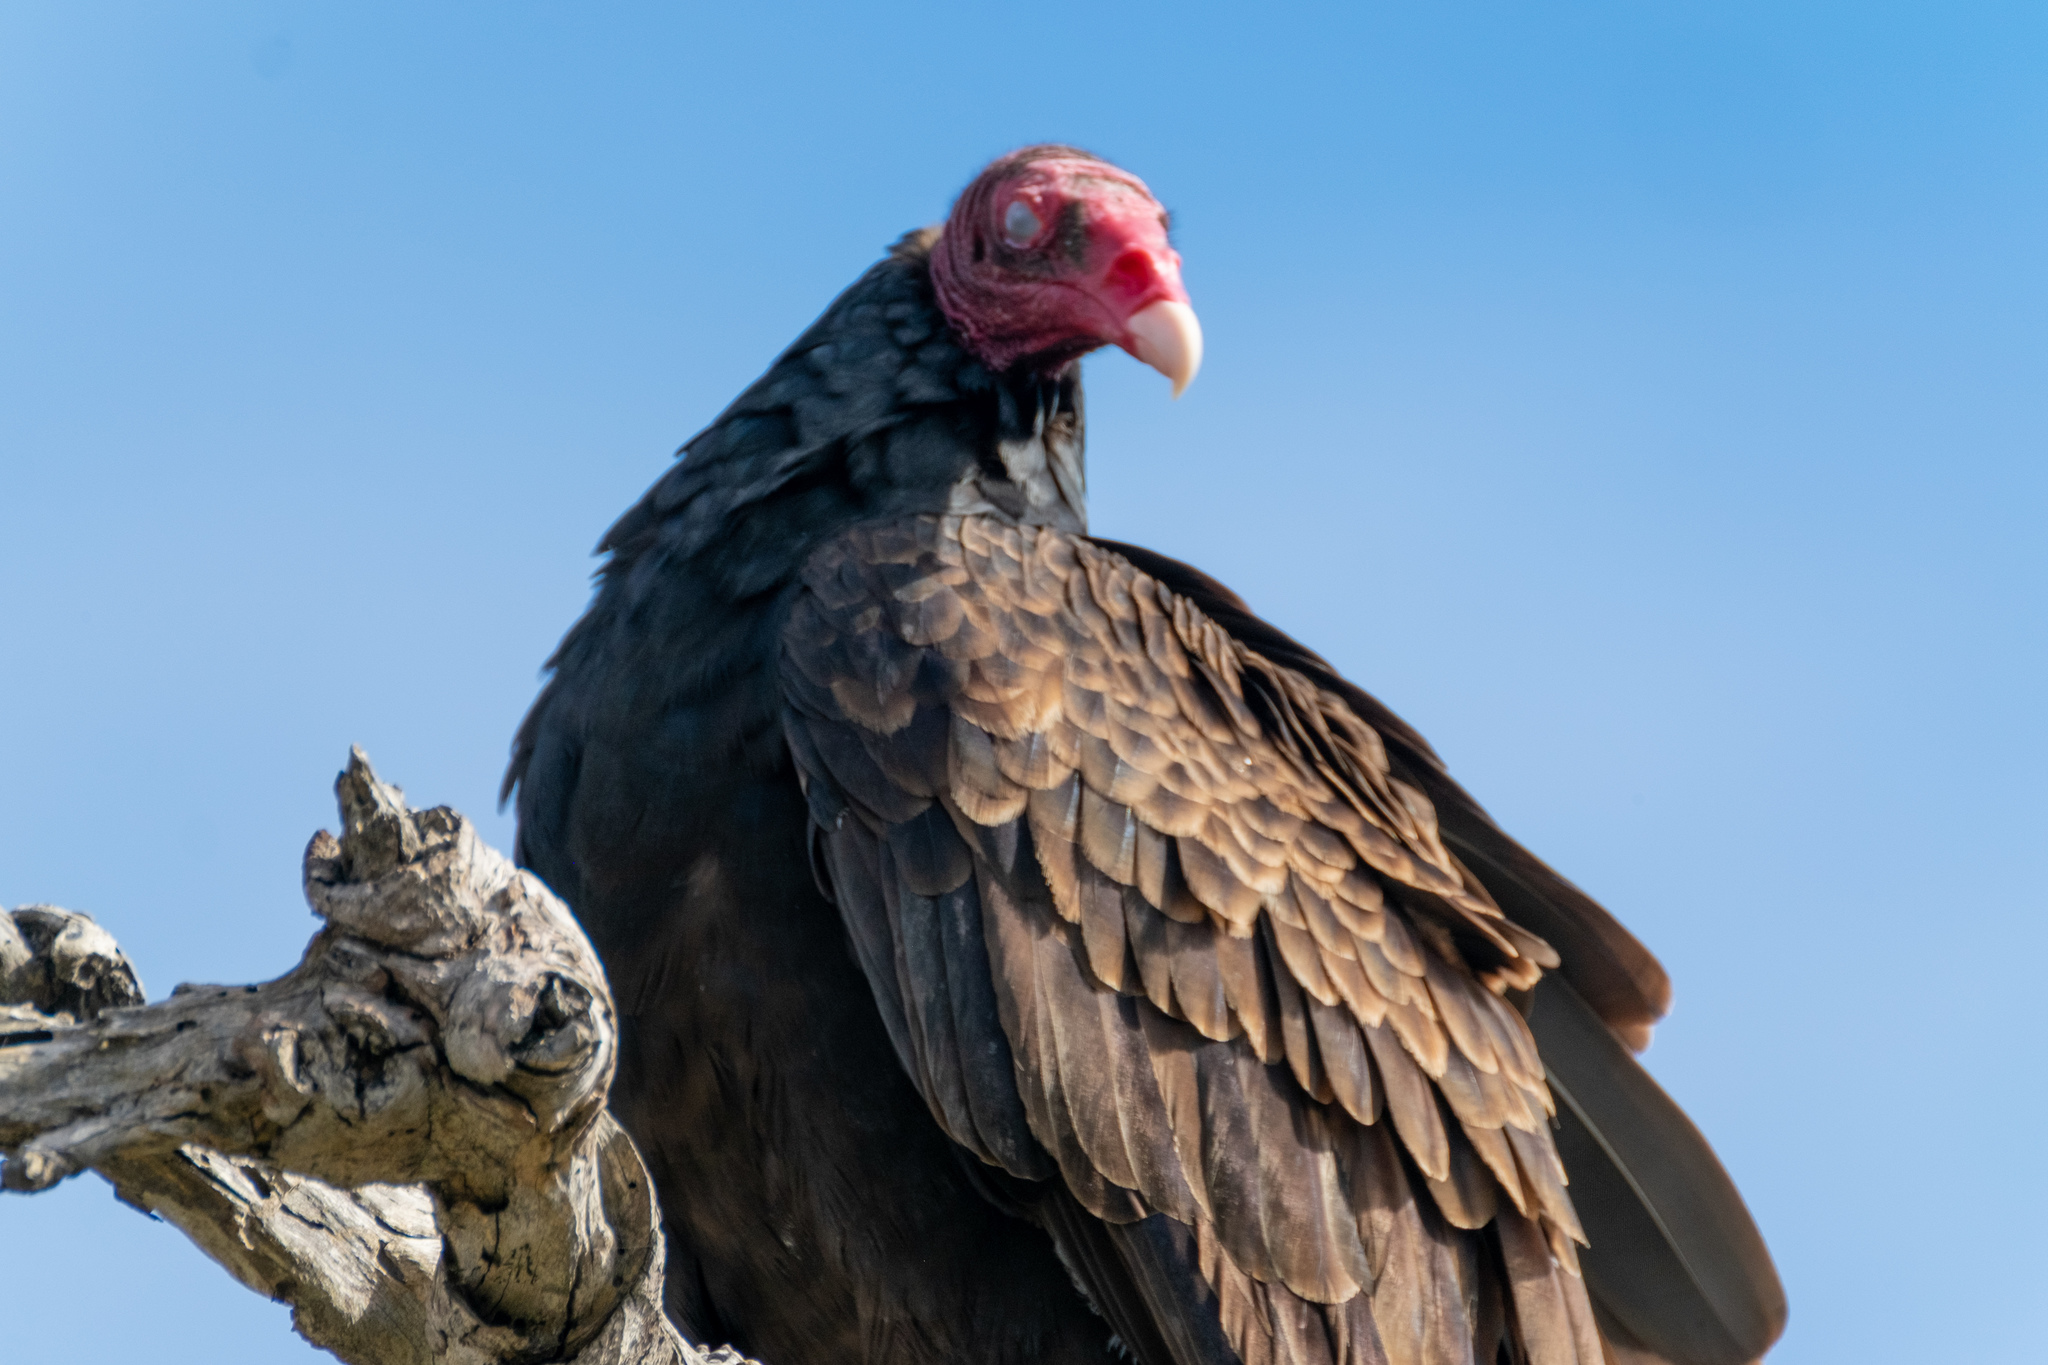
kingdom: Animalia
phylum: Chordata
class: Aves
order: Accipitriformes
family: Cathartidae
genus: Cathartes
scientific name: Cathartes aura
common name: Turkey vulture
